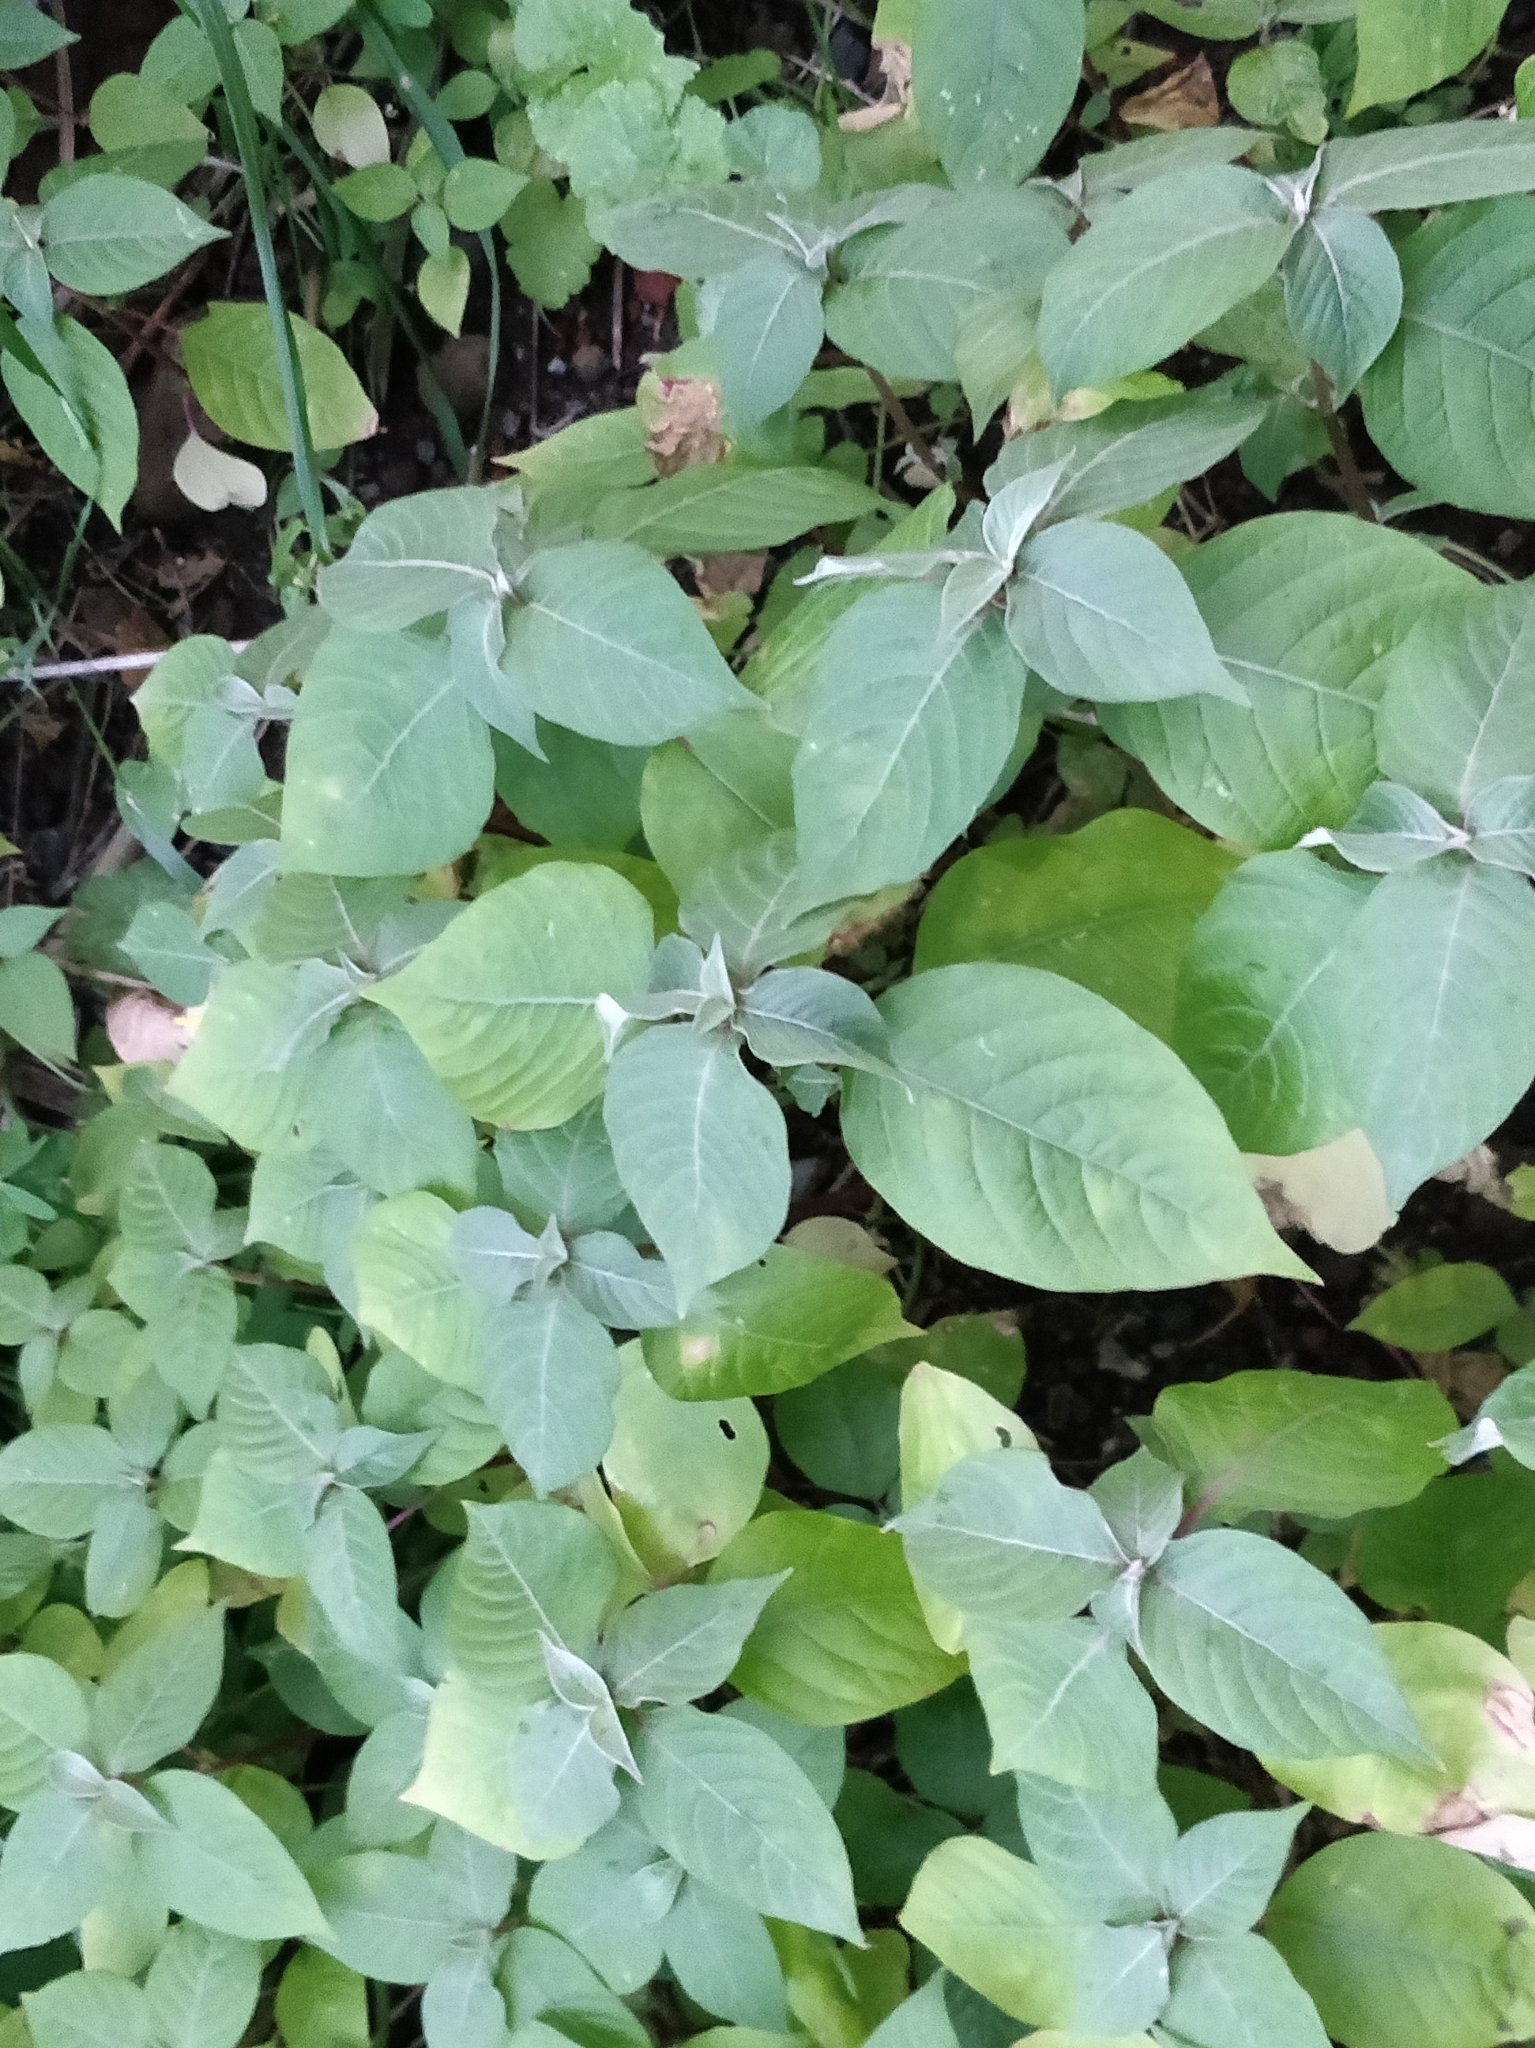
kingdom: Plantae
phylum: Tracheophyta
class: Magnoliopsida
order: Caryophyllales
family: Amaranthaceae
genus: Achyranthes
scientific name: Achyranthes aspera
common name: Devil's horsewhip
